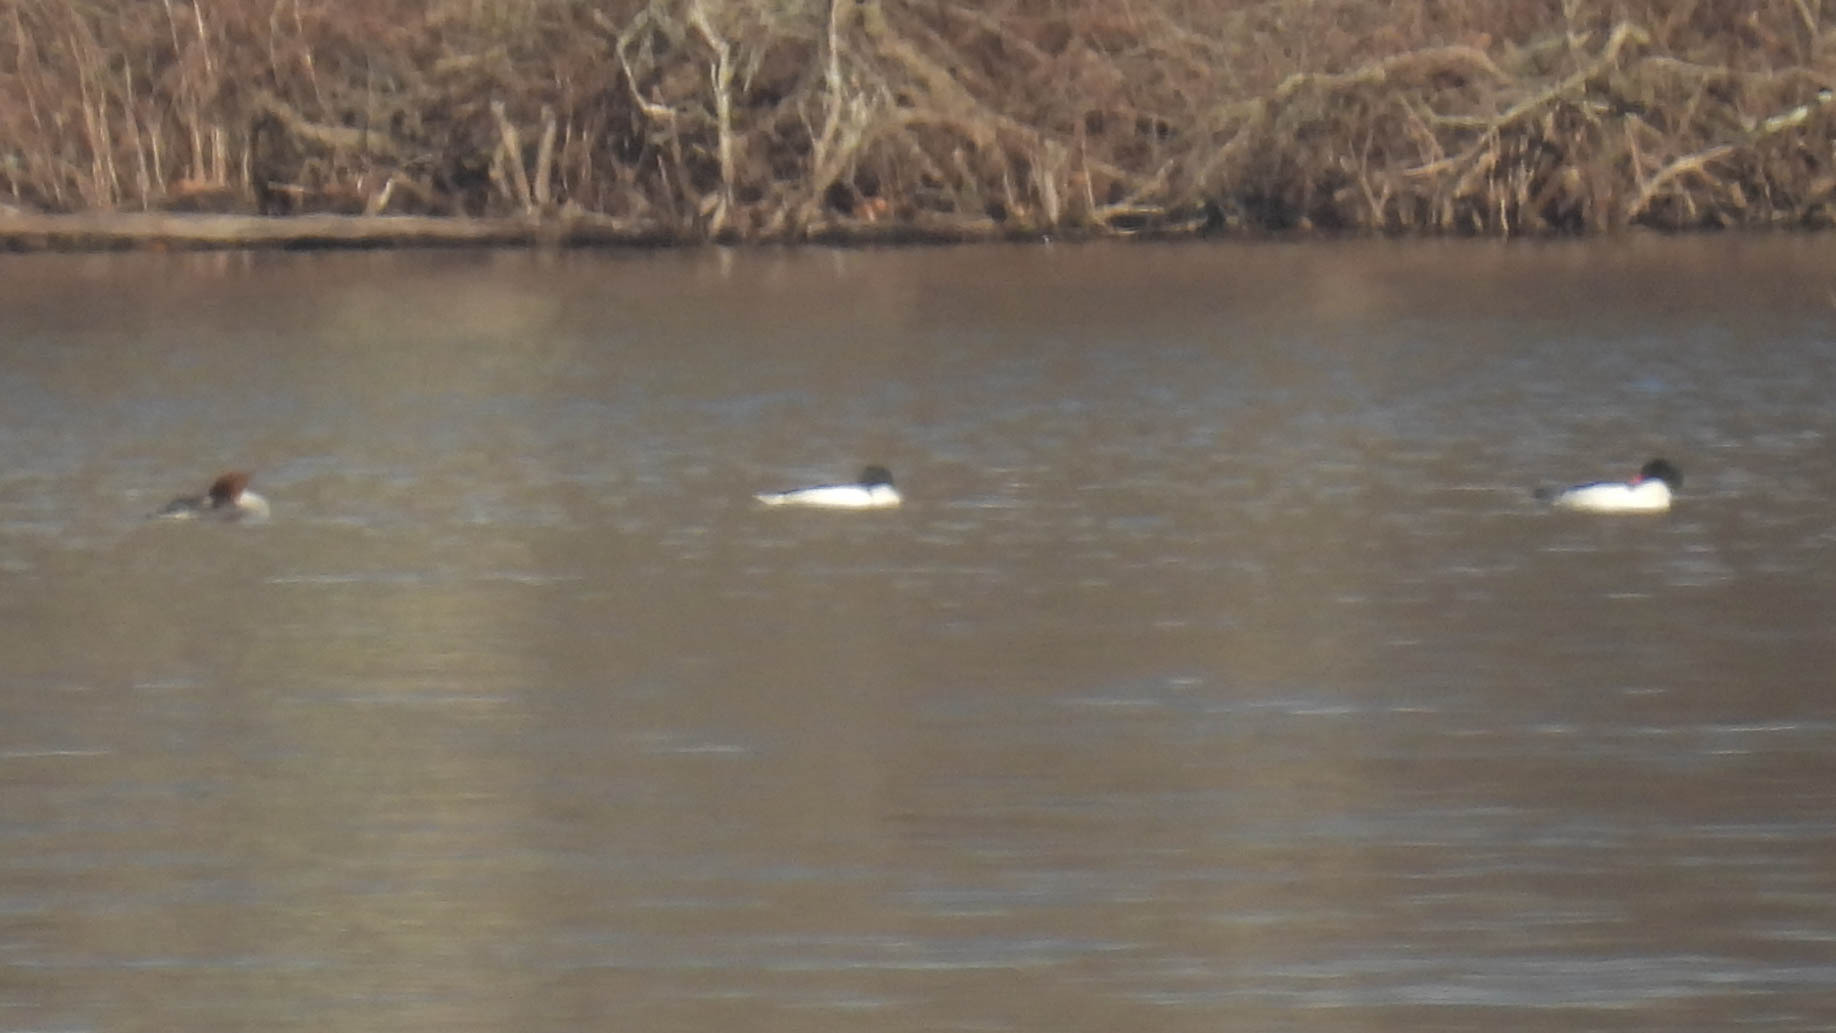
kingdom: Animalia
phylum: Chordata
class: Aves
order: Anseriformes
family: Anatidae
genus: Mergus
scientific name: Mergus merganser
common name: Common merganser
